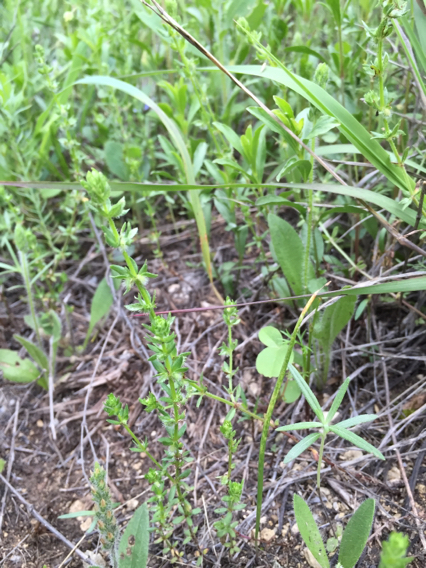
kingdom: Plantae
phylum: Tracheophyta
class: Magnoliopsida
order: Gentianales
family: Rubiaceae
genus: Galium
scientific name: Galium virgatum
